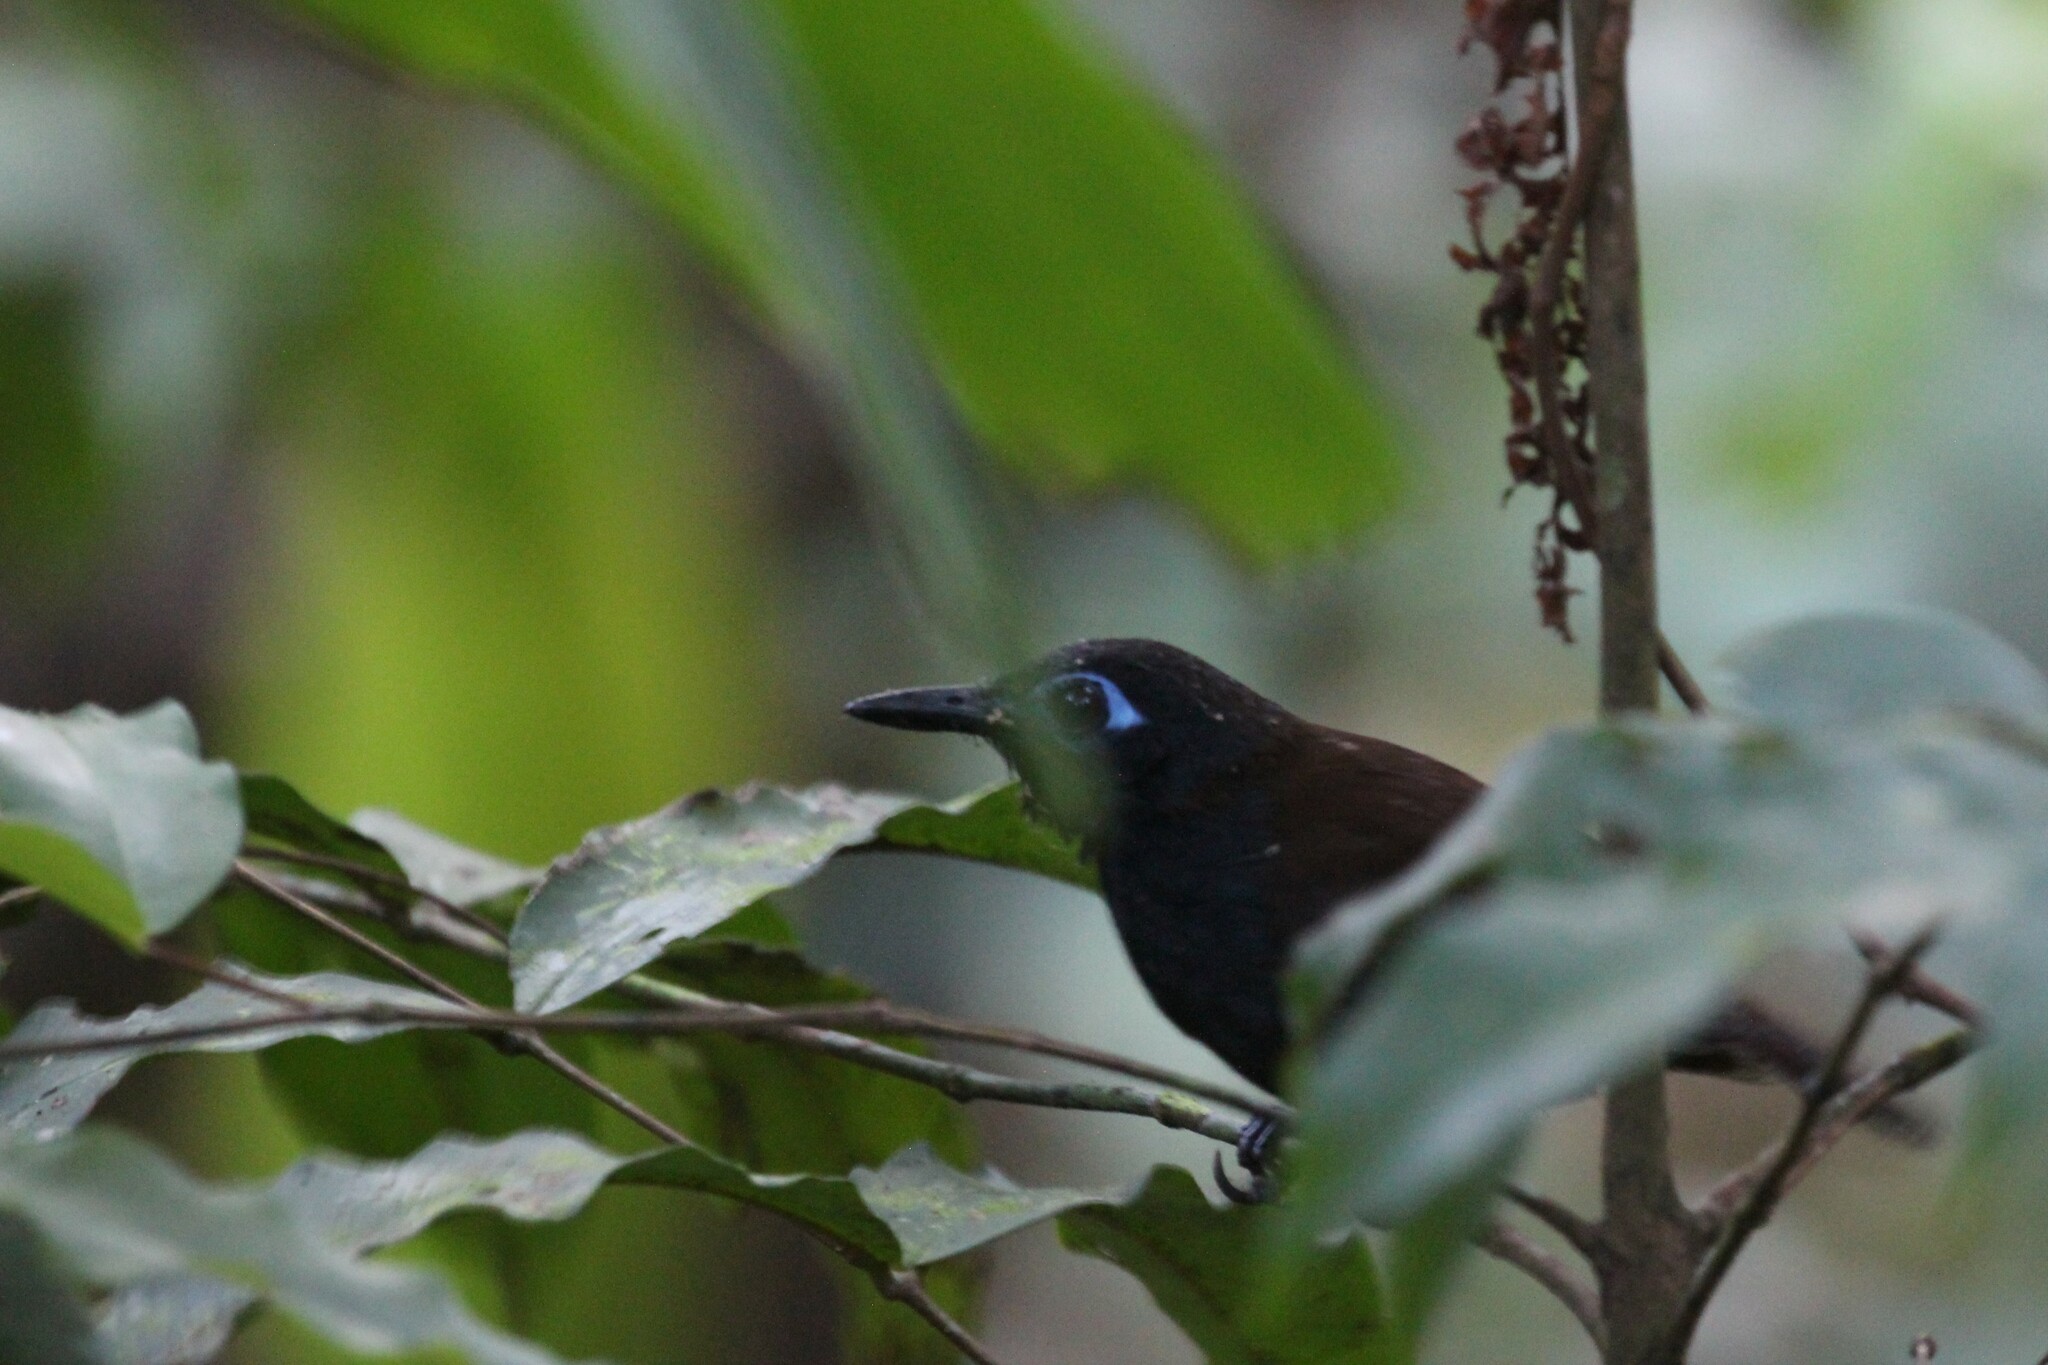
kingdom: Animalia
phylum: Chordata
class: Aves
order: Passeriformes
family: Thamnophilidae
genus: Myrmeciza
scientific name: Myrmeciza exsul
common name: Chestnut-backed antbird
